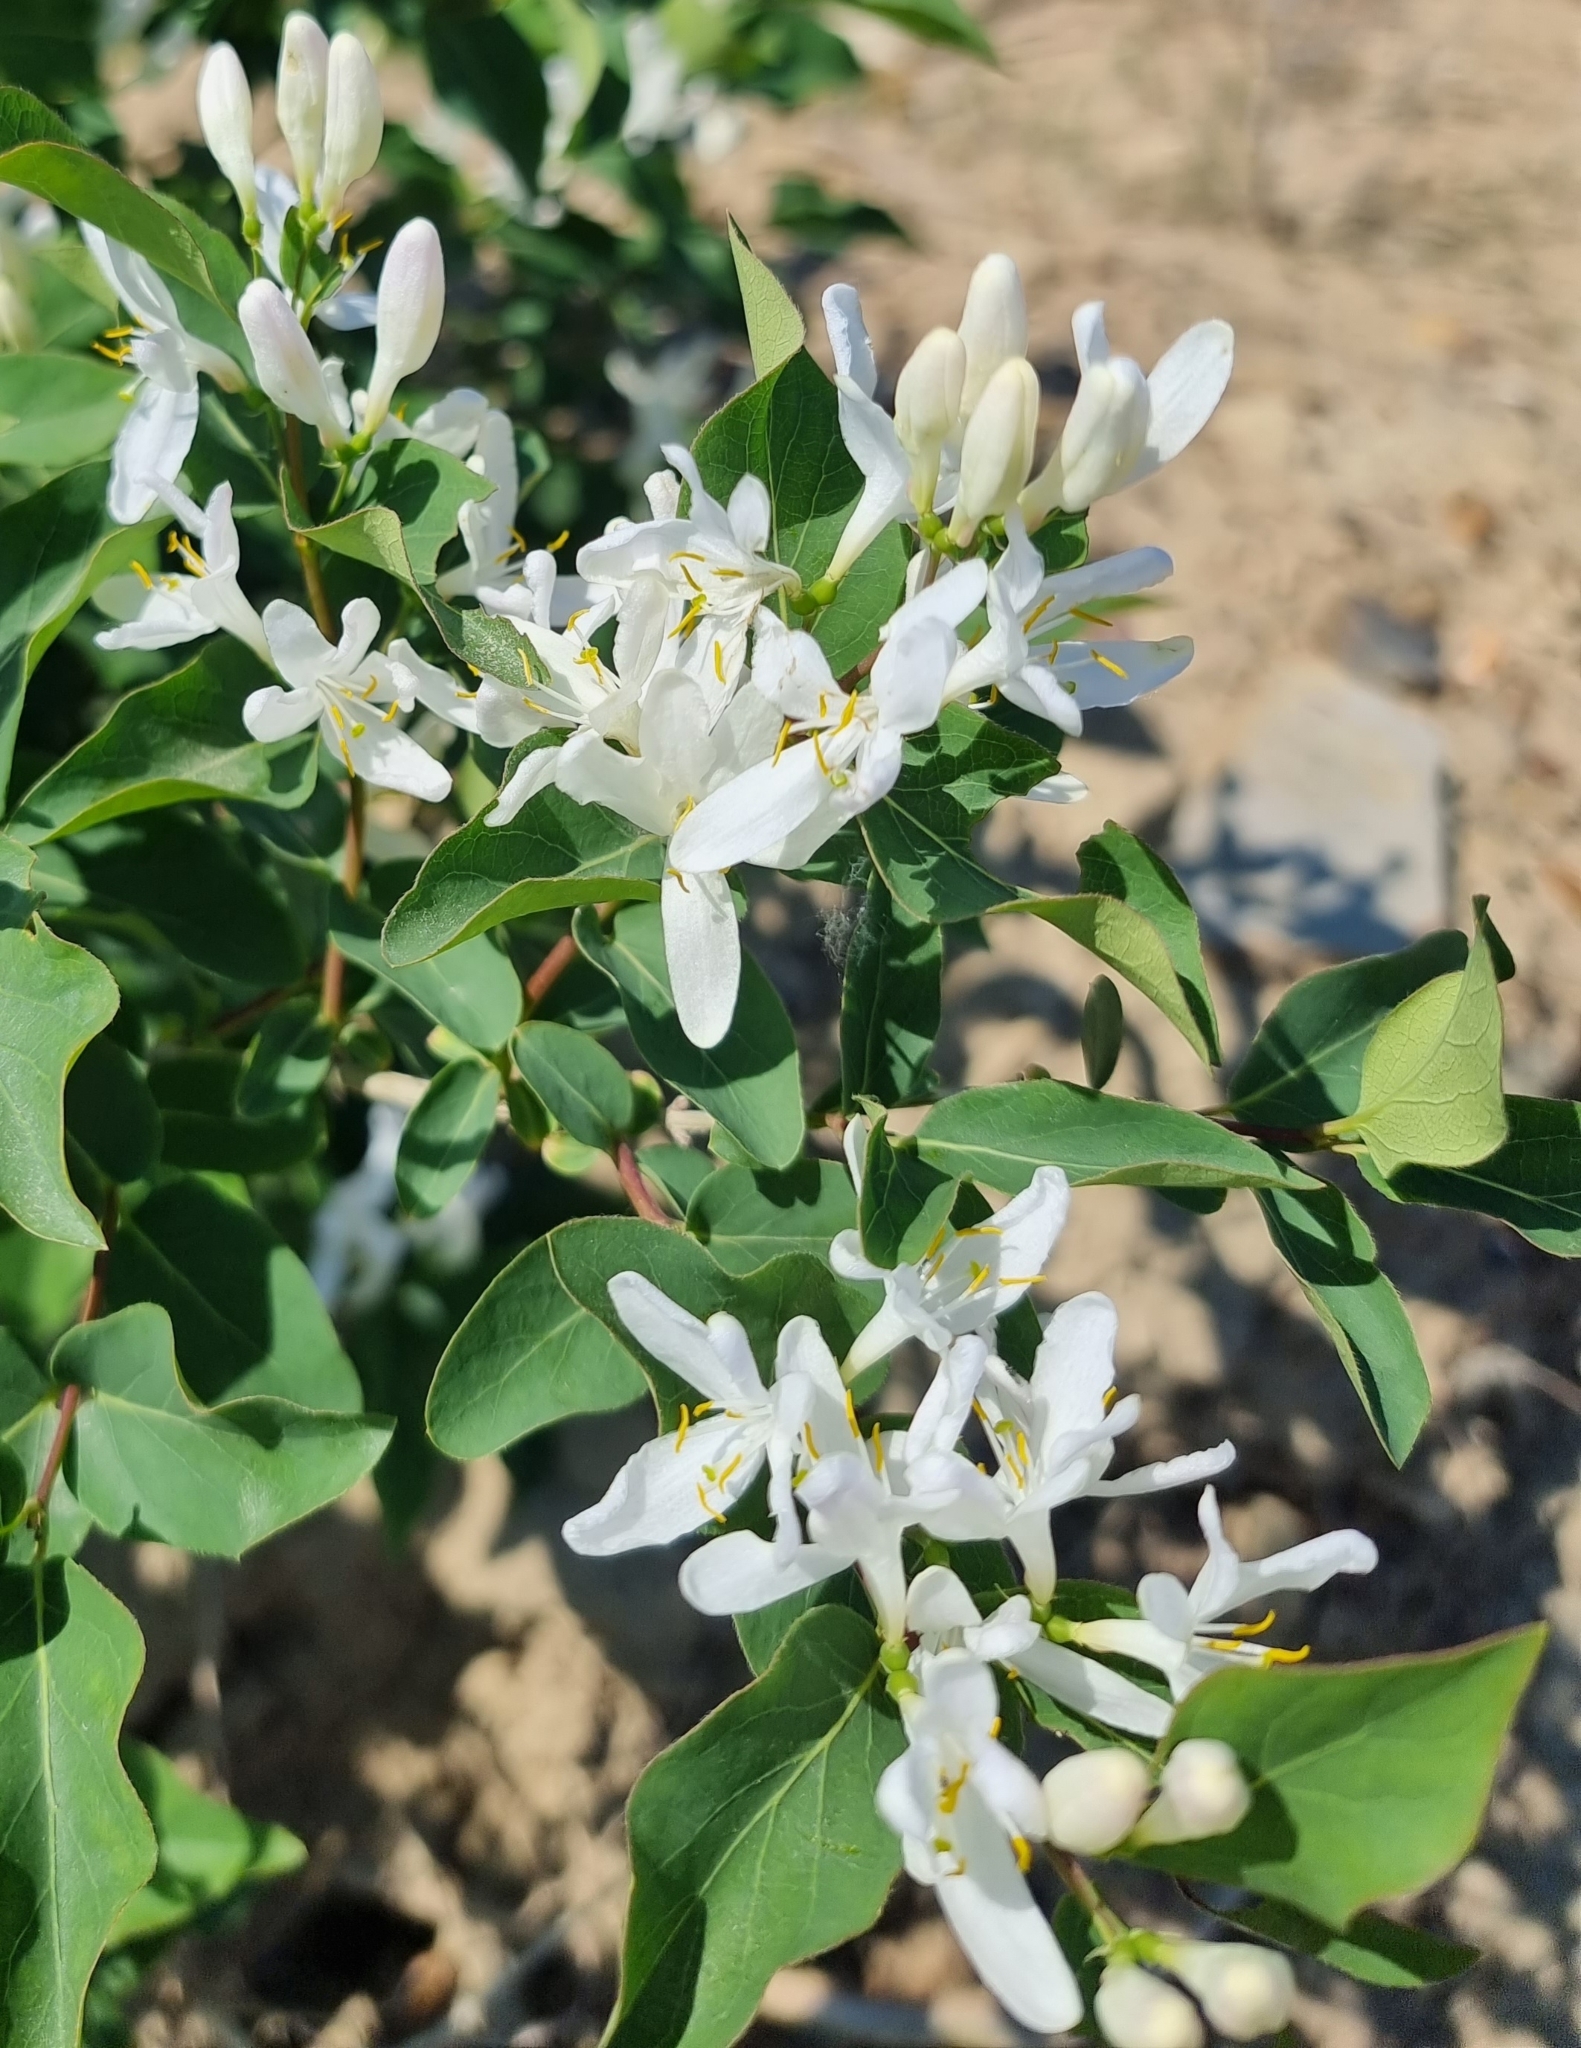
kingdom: Plantae
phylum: Tracheophyta
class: Magnoliopsida
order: Dipsacales
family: Caprifoliaceae
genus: Lonicera
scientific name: Lonicera tatarica
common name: Tatarian honeysuckle
